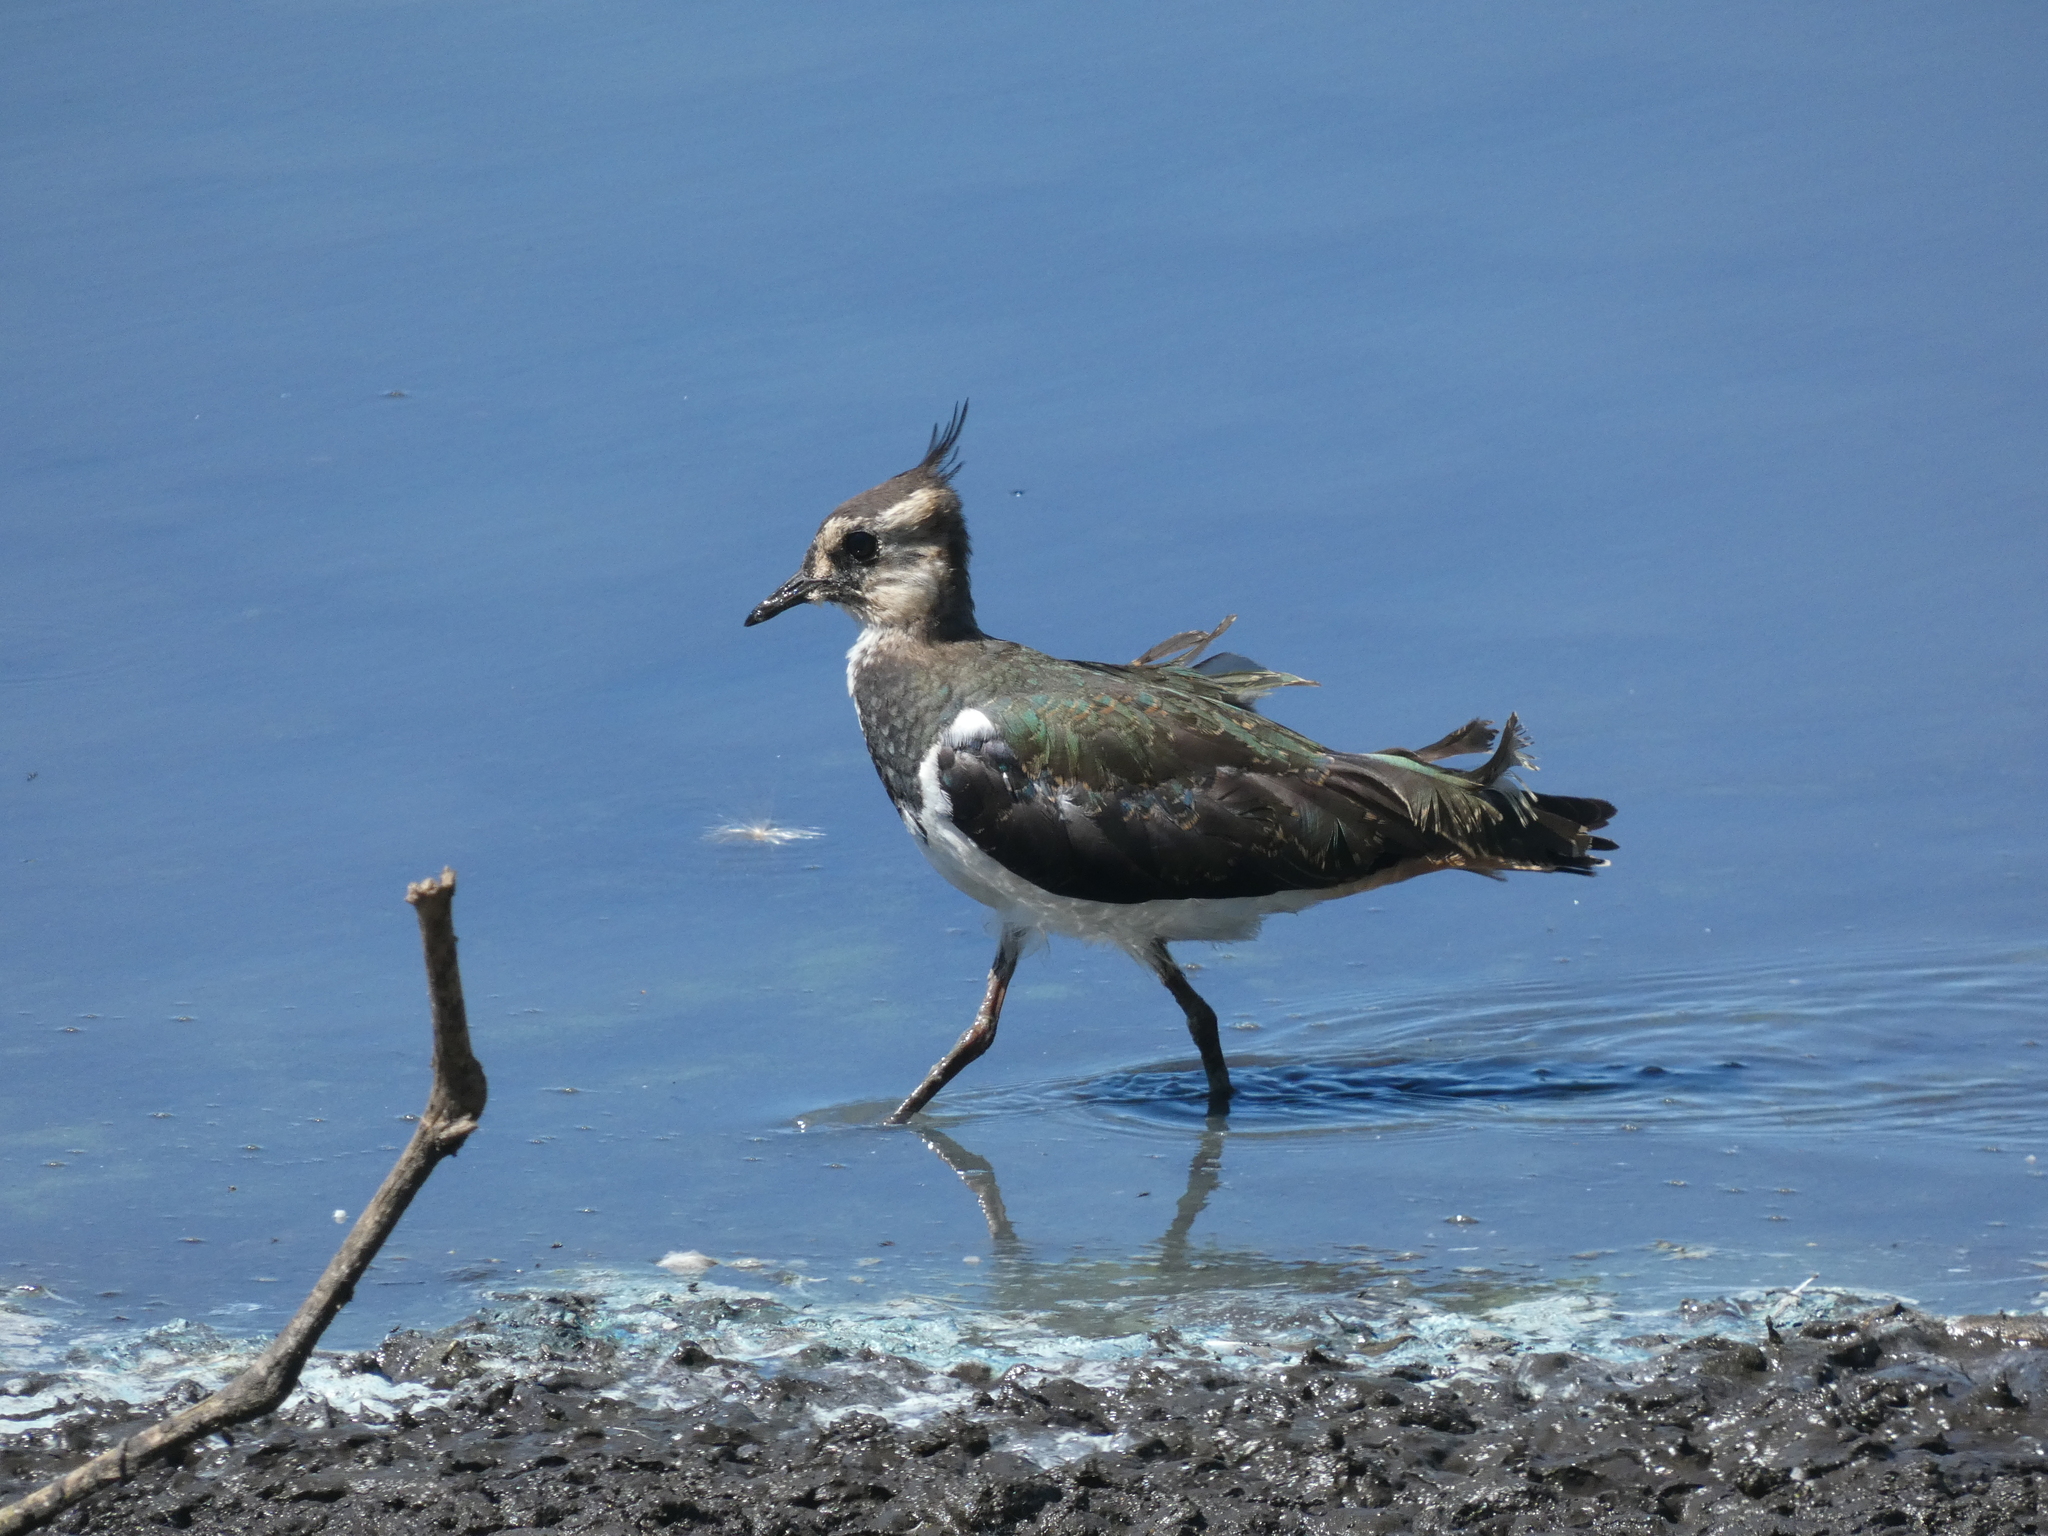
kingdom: Animalia
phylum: Chordata
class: Aves
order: Charadriiformes
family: Charadriidae
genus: Vanellus
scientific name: Vanellus vanellus
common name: Northern lapwing
